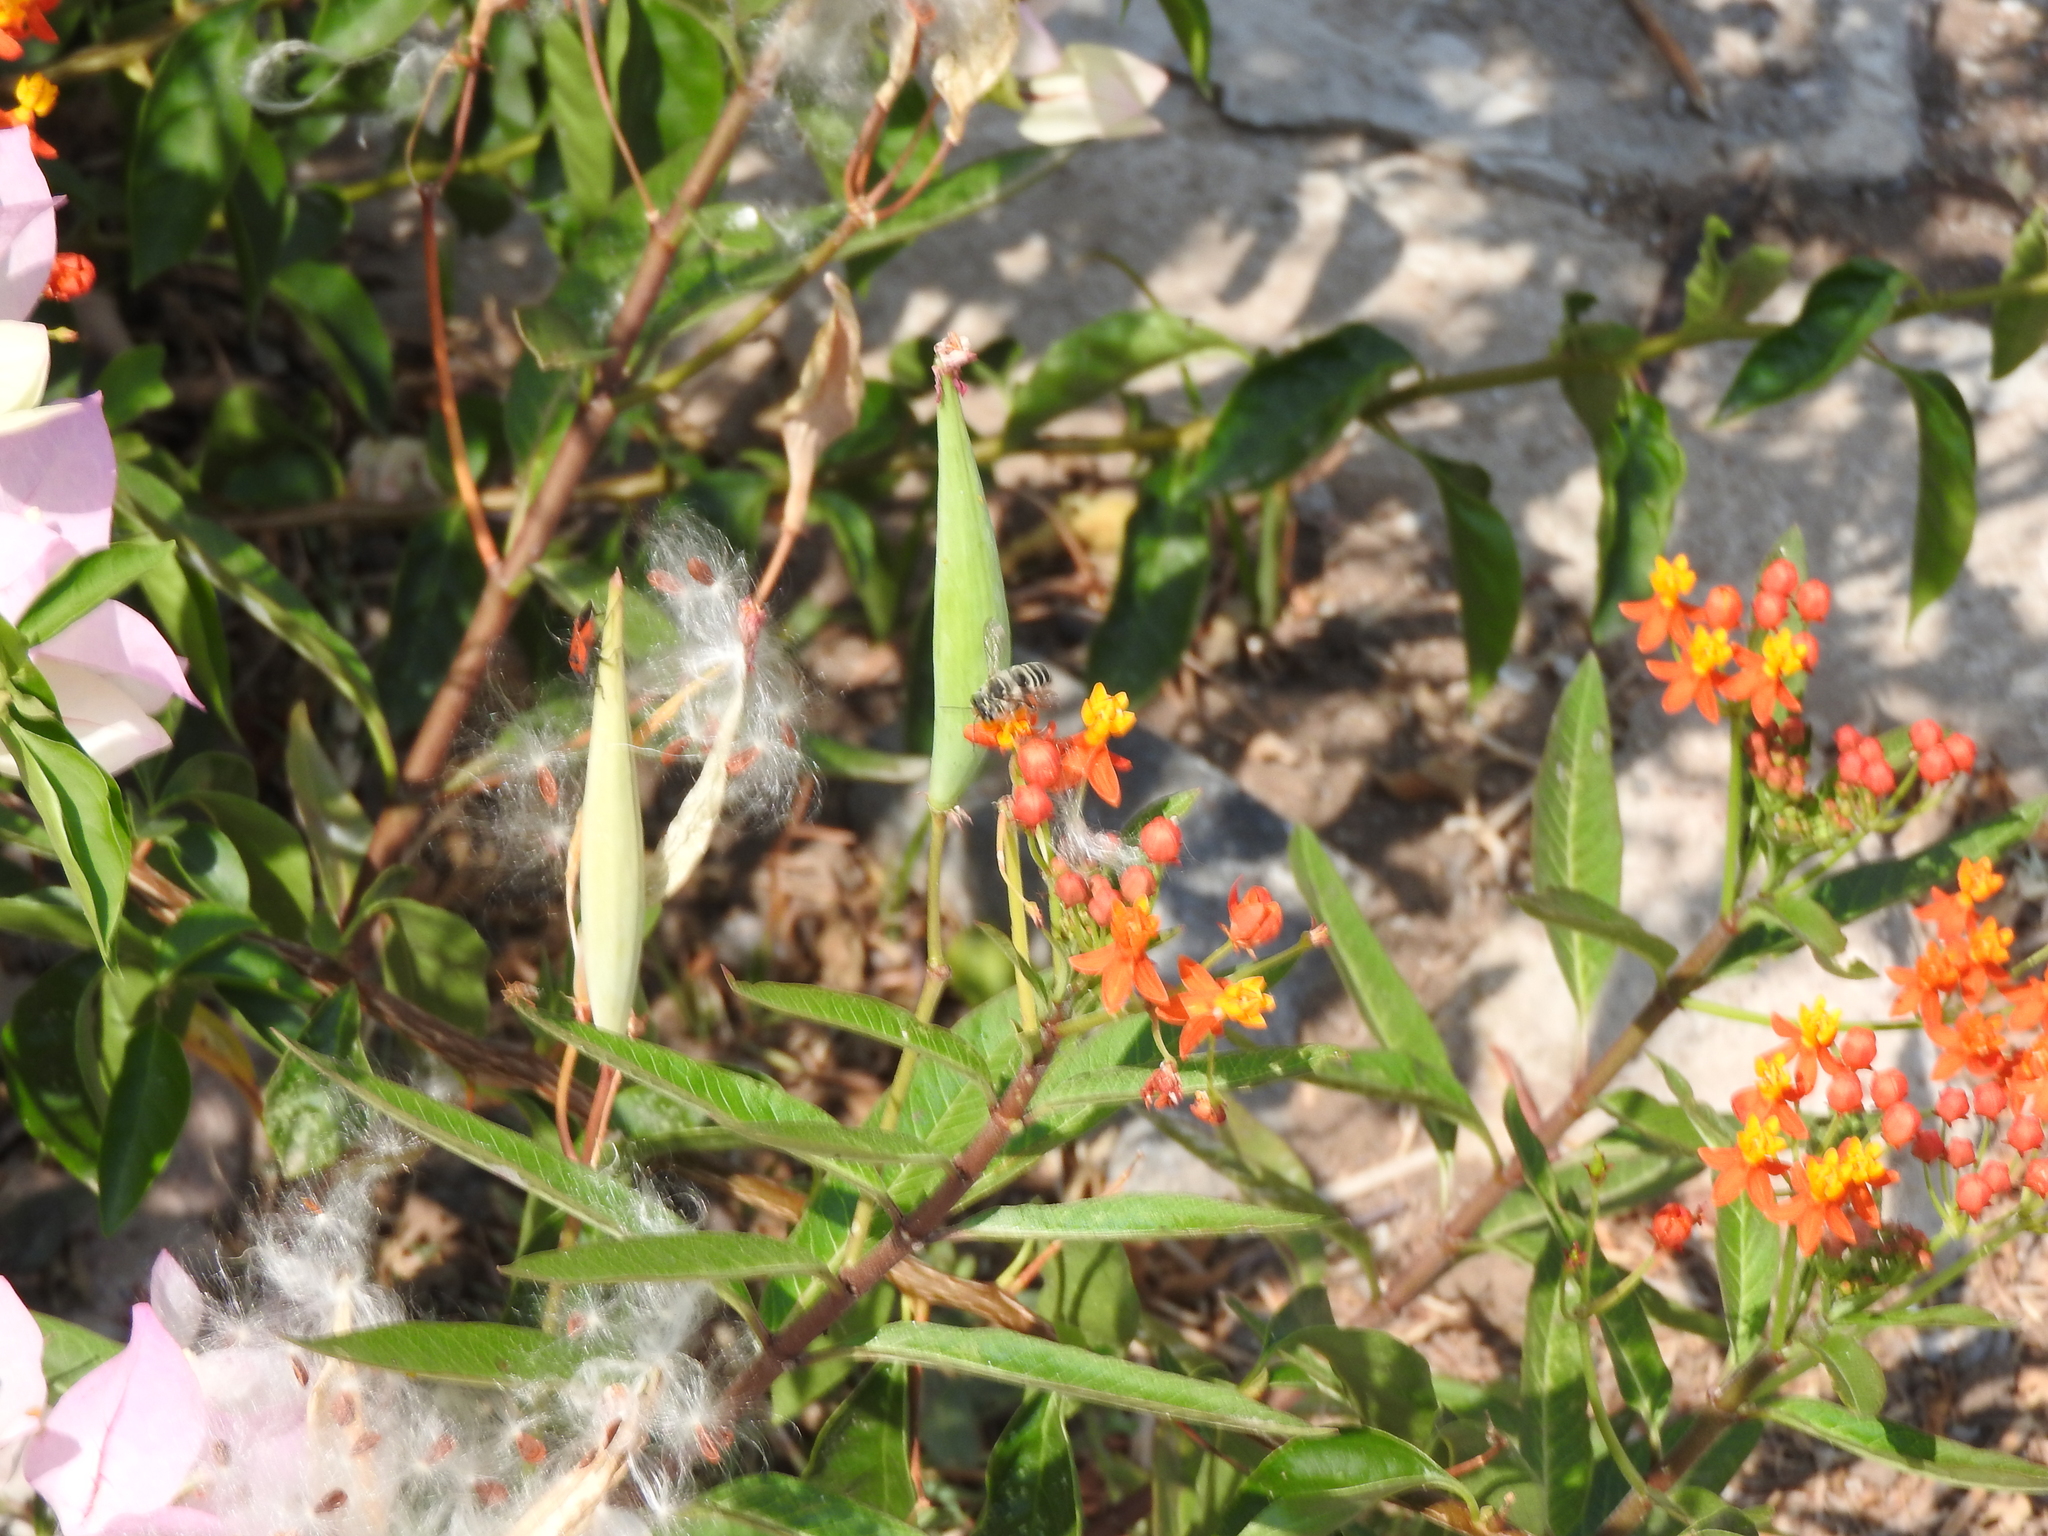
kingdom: Animalia
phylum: Arthropoda
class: Insecta
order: Hymenoptera
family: Megachilidae
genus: Megachile
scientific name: Megachile sidalceae
